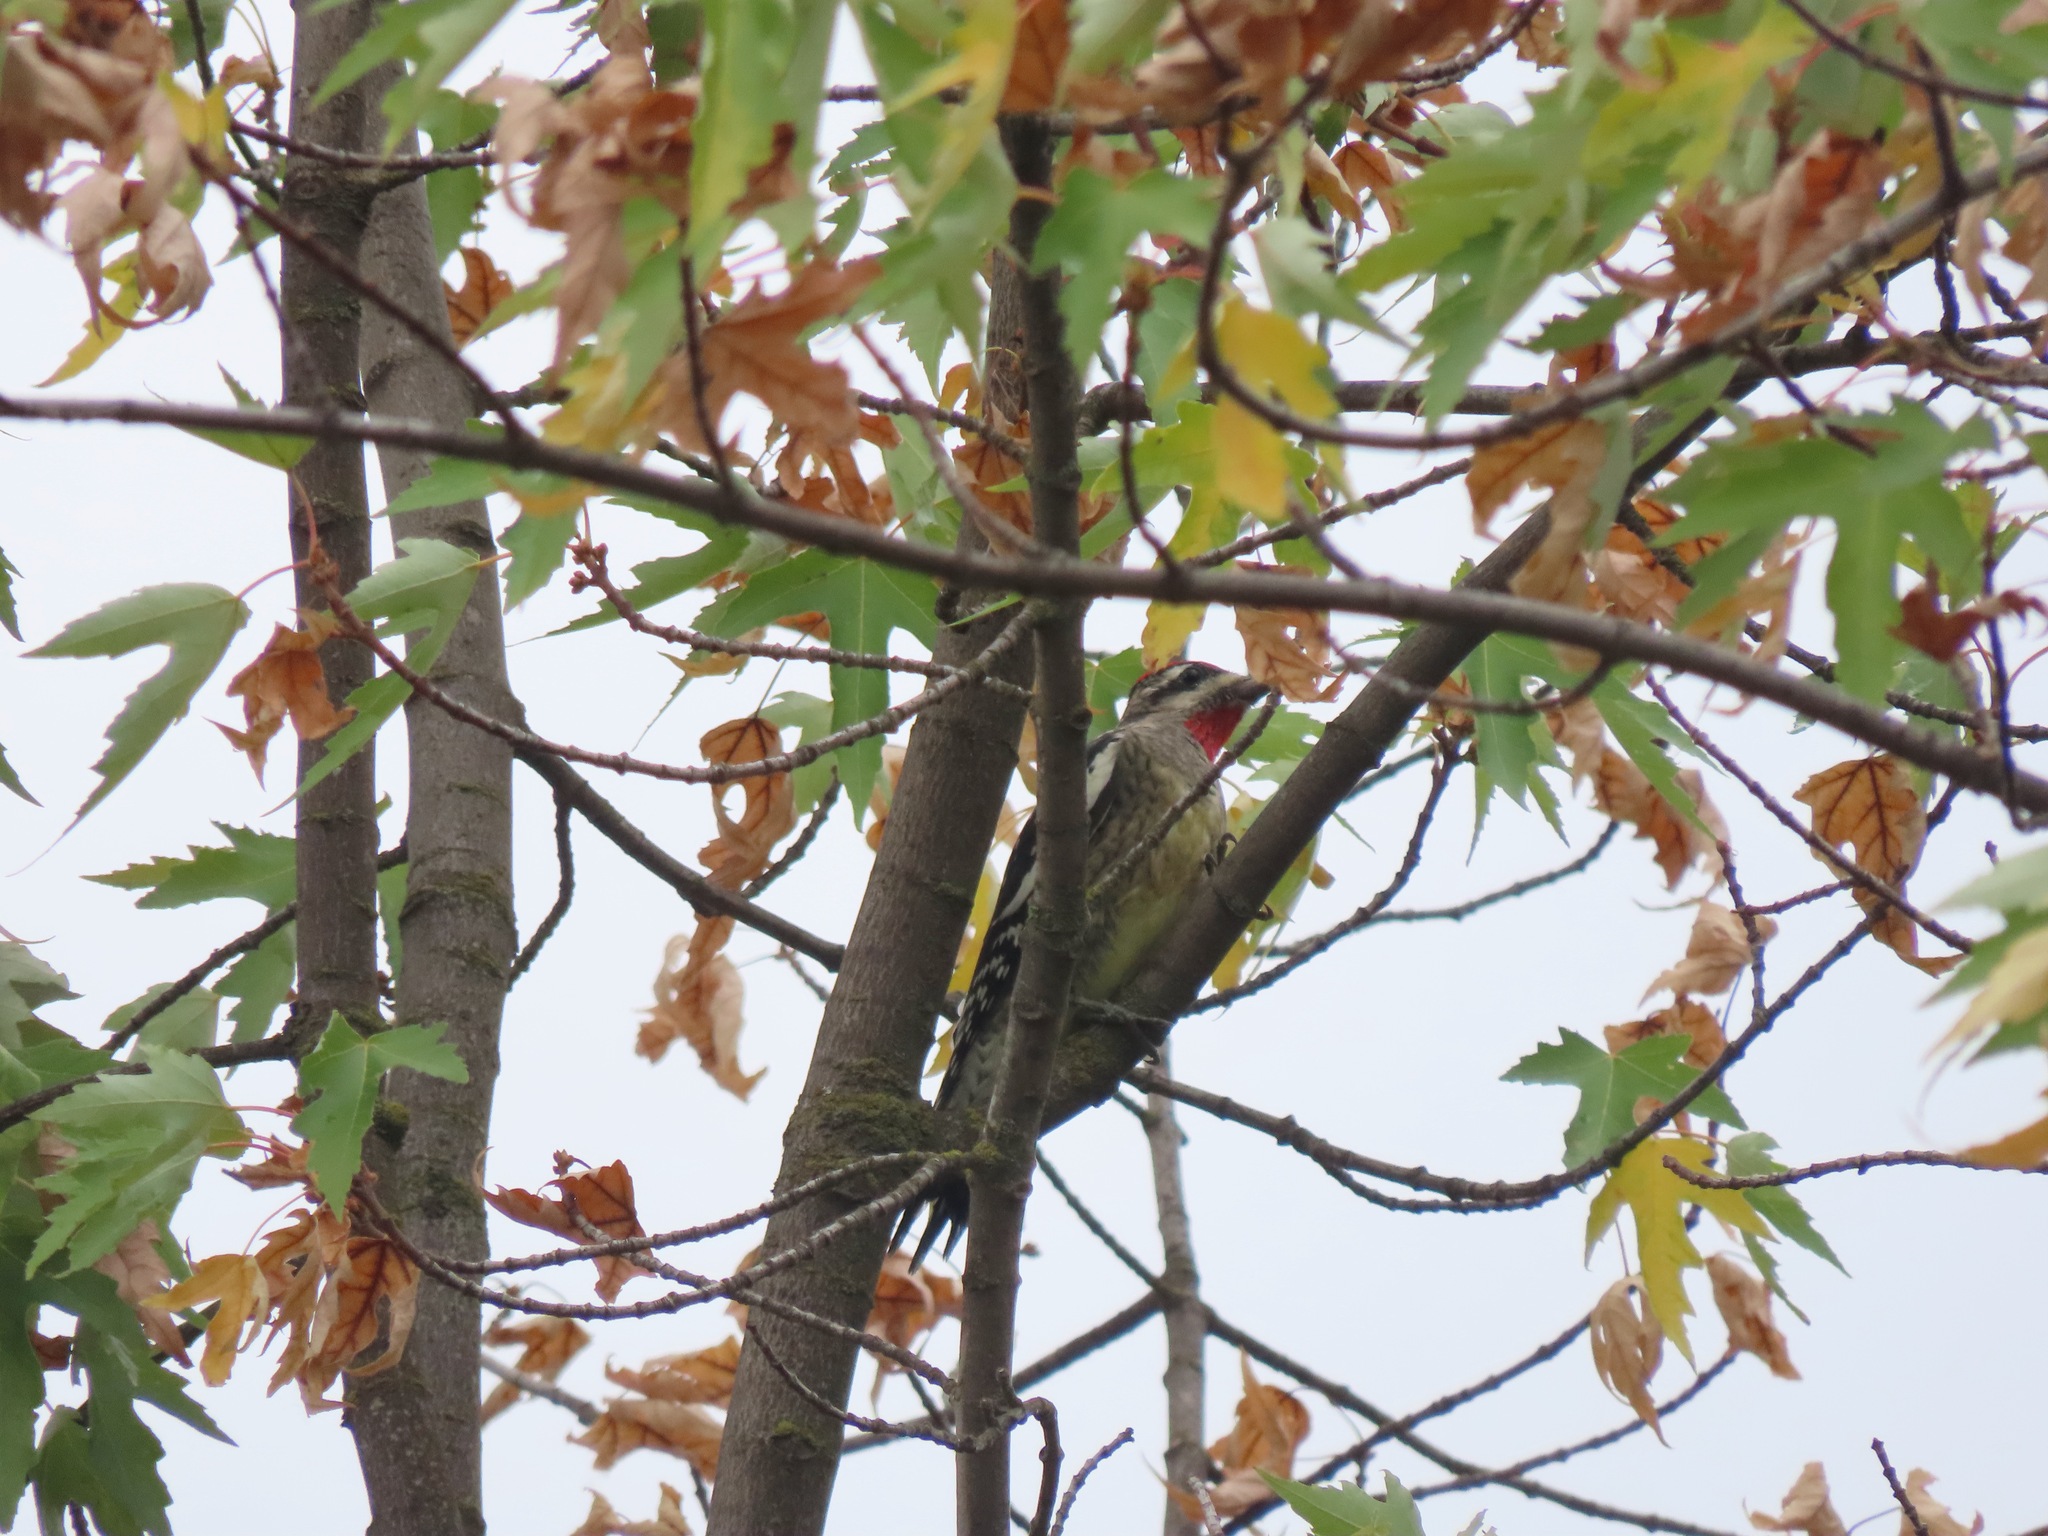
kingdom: Animalia
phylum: Chordata
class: Aves
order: Piciformes
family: Picidae
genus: Sphyrapicus
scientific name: Sphyrapicus nuchalis
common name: Red-naped sapsucker
